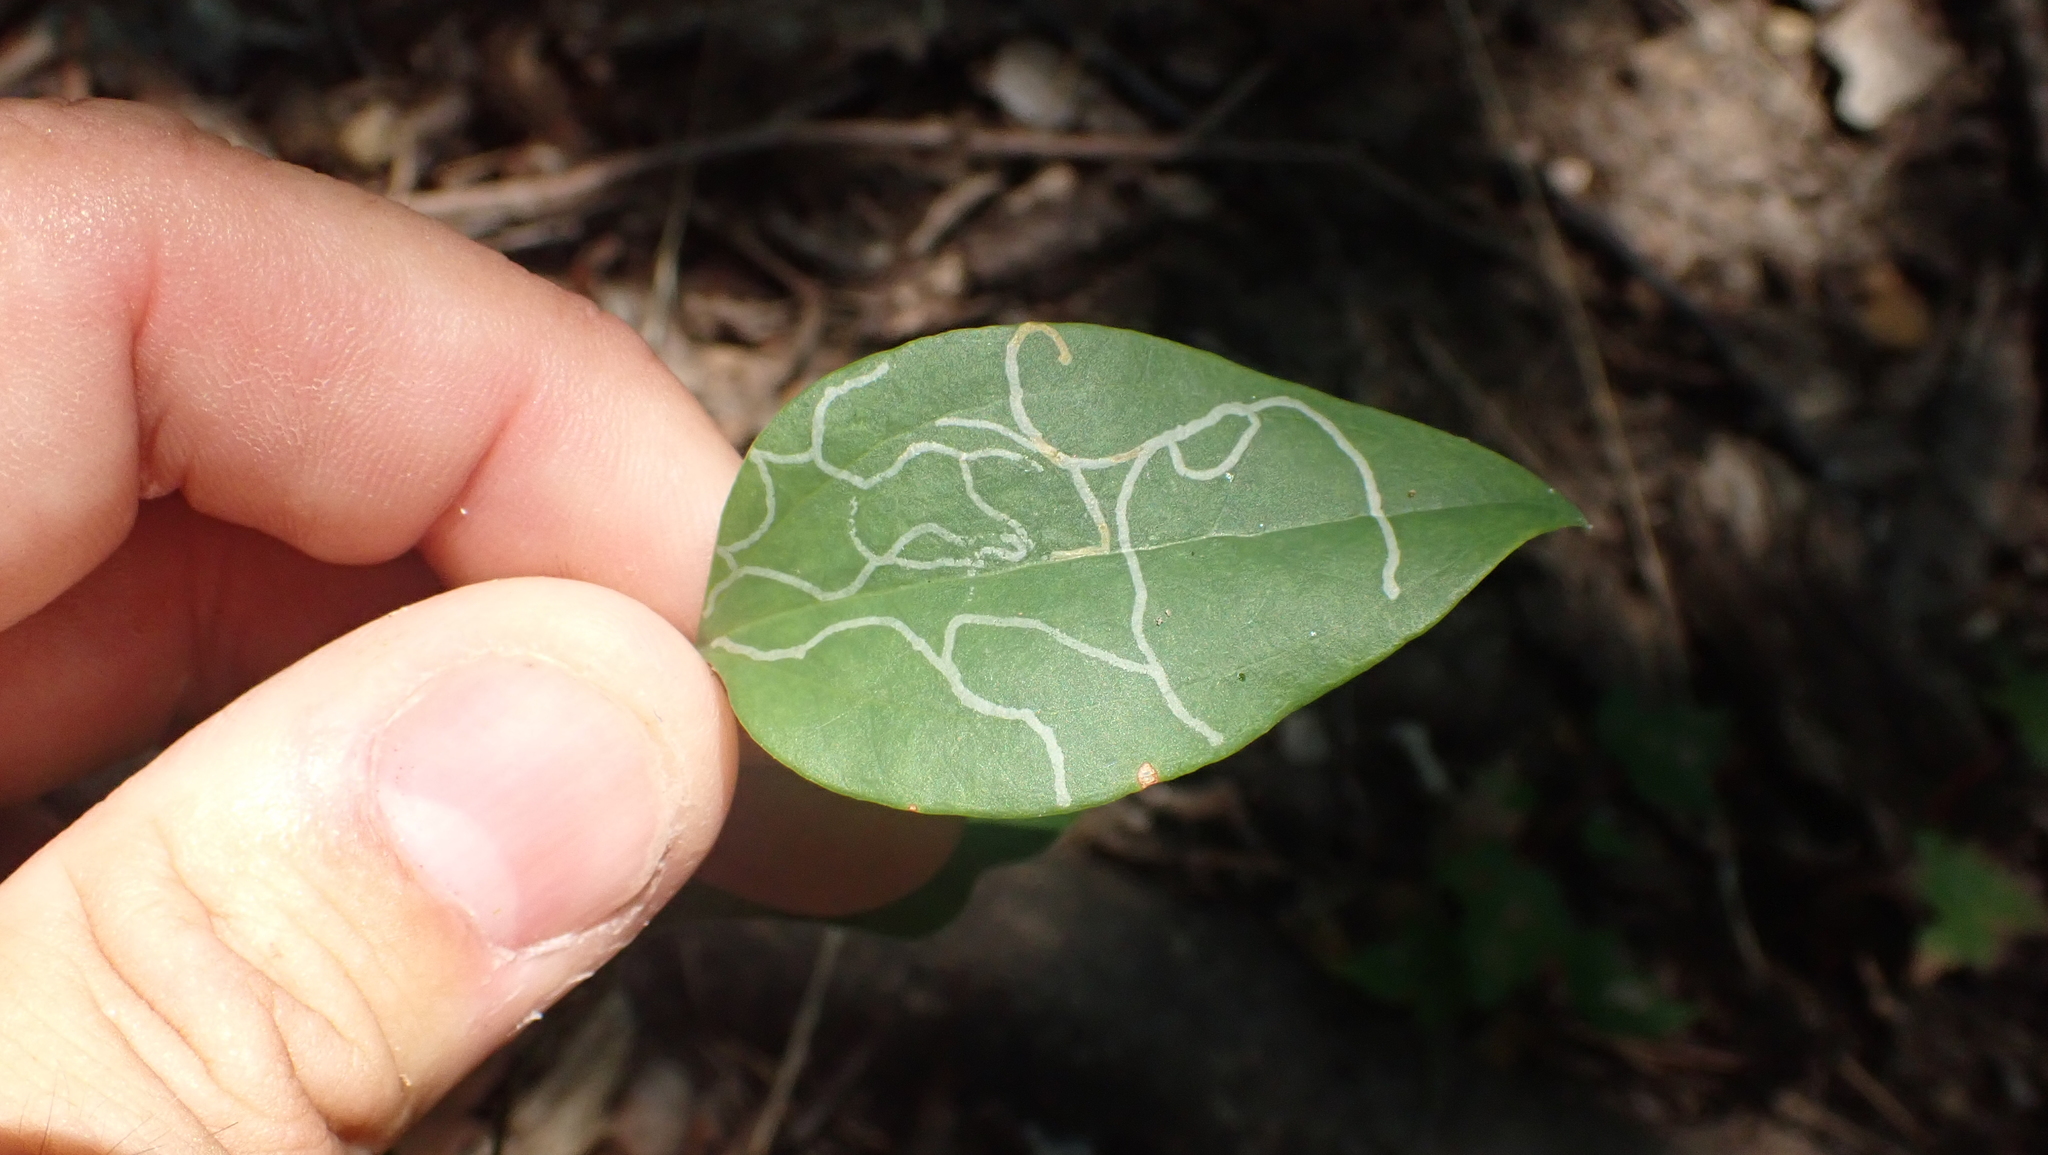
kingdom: Animalia
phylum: Arthropoda
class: Insecta
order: Lepidoptera
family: Gracillariidae
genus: Marmara
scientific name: Marmara smilacisella
